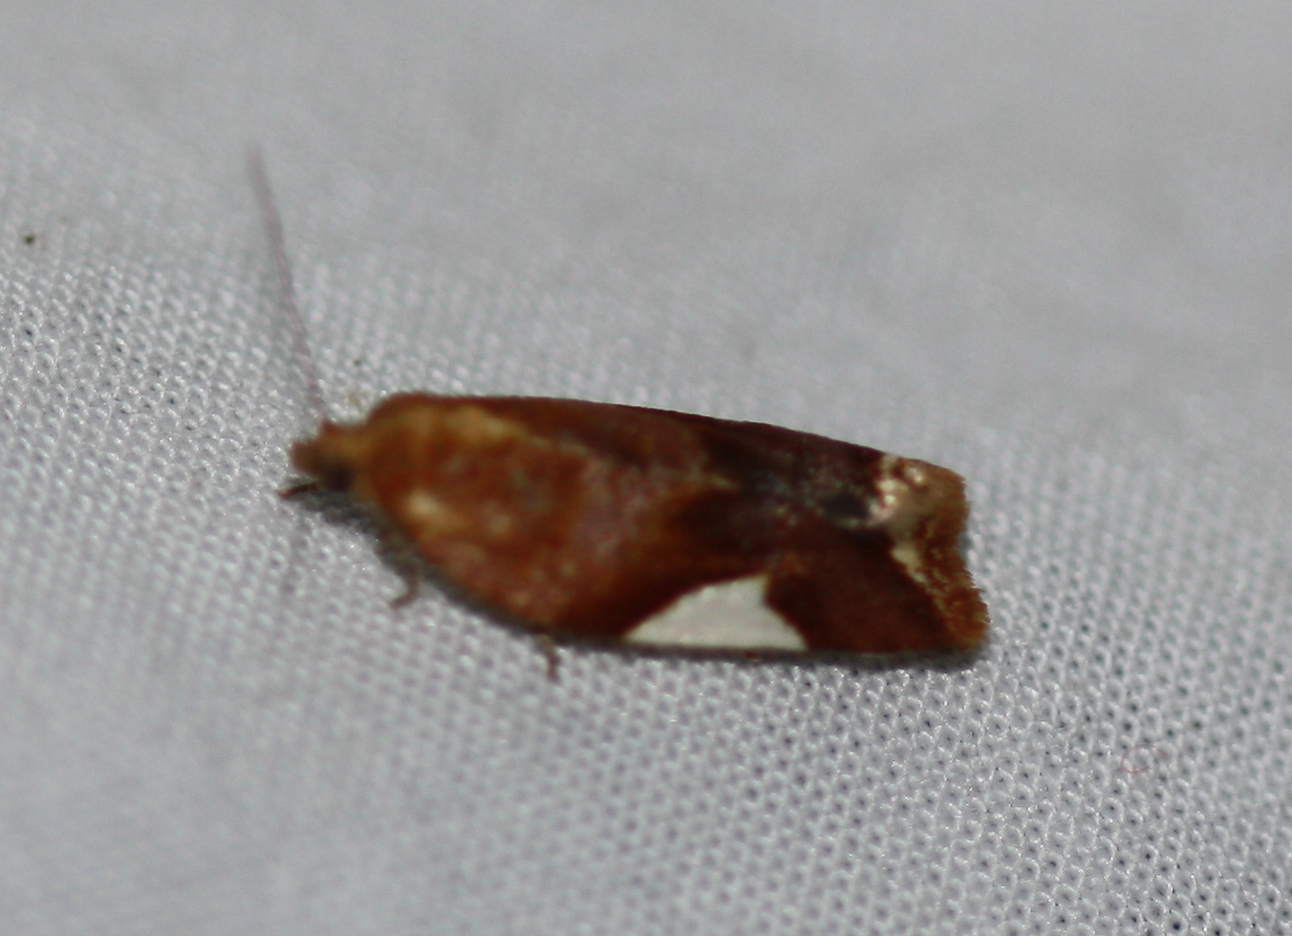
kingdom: Animalia
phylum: Arthropoda
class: Insecta
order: Lepidoptera
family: Tortricidae
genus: Clepsis
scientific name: Clepsis persicana
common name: White triangle tortrix
